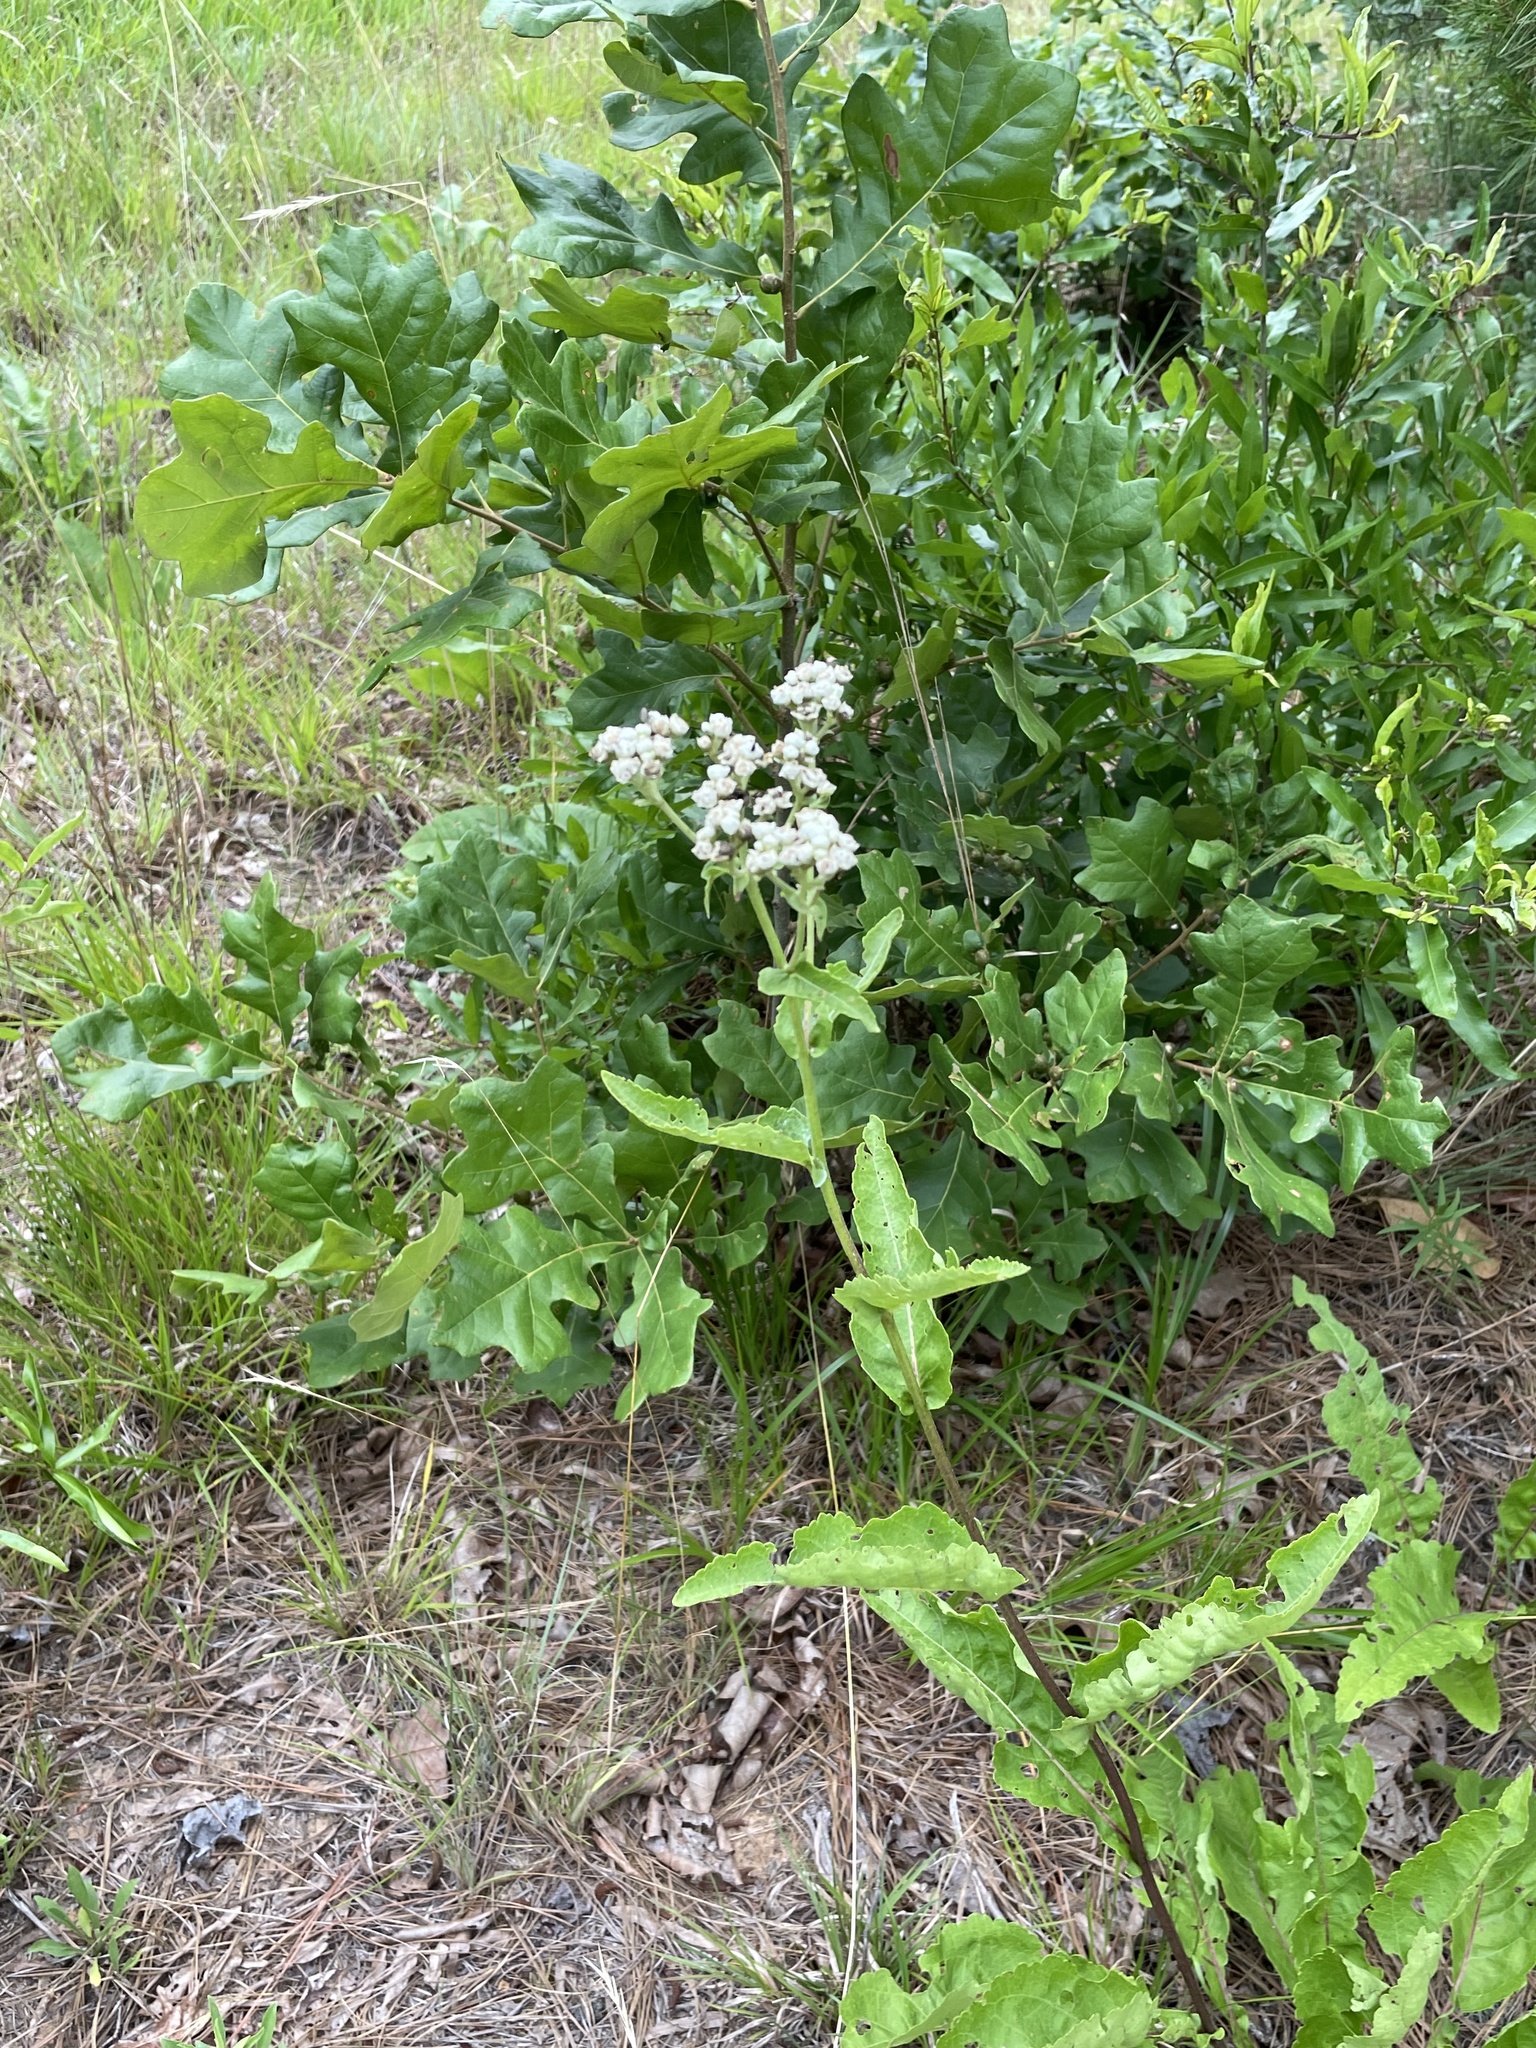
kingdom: Plantae
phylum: Tracheophyta
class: Magnoliopsida
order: Asterales
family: Asteraceae
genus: Parthenium
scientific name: Parthenium integrifolium
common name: American feverfew
